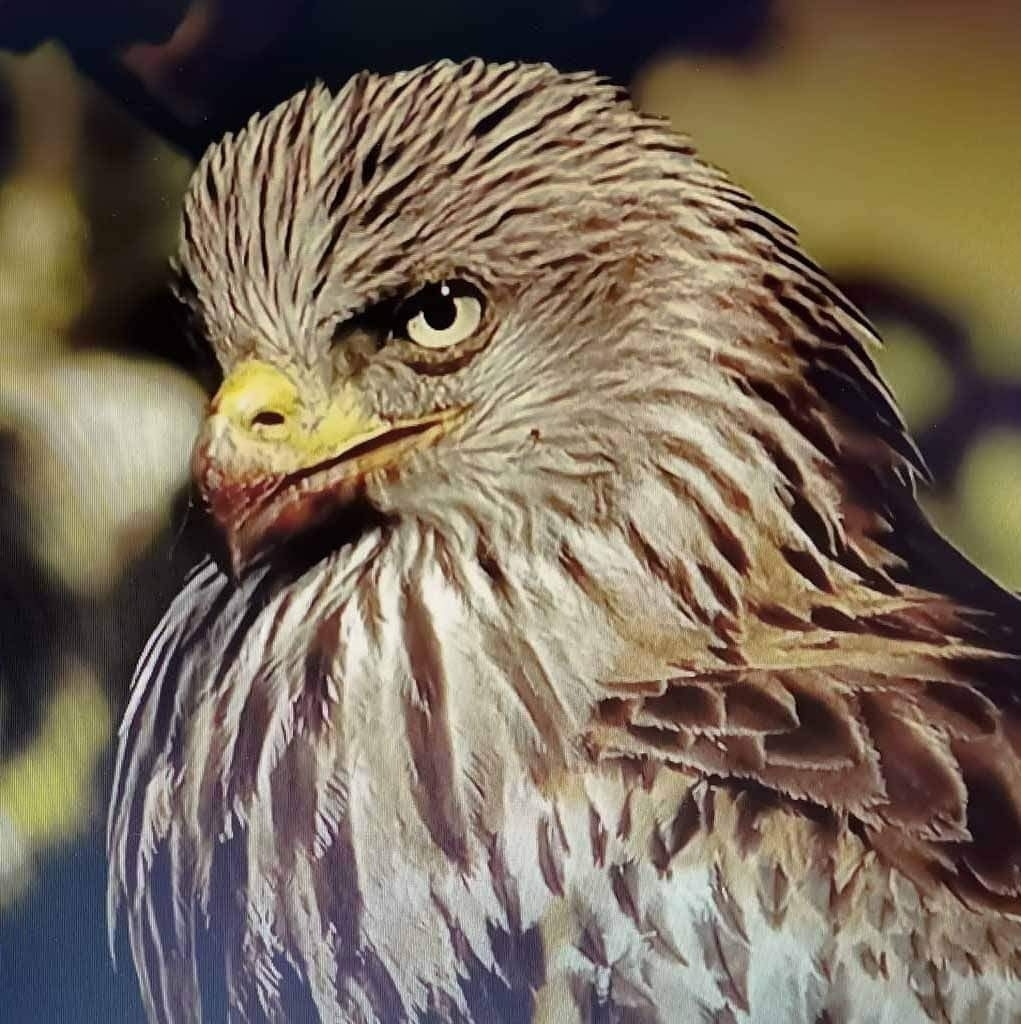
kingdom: Animalia
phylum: Chordata
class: Aves
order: Accipitriformes
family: Accipitridae
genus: Milvus
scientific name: Milvus milvus
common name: Red kite
